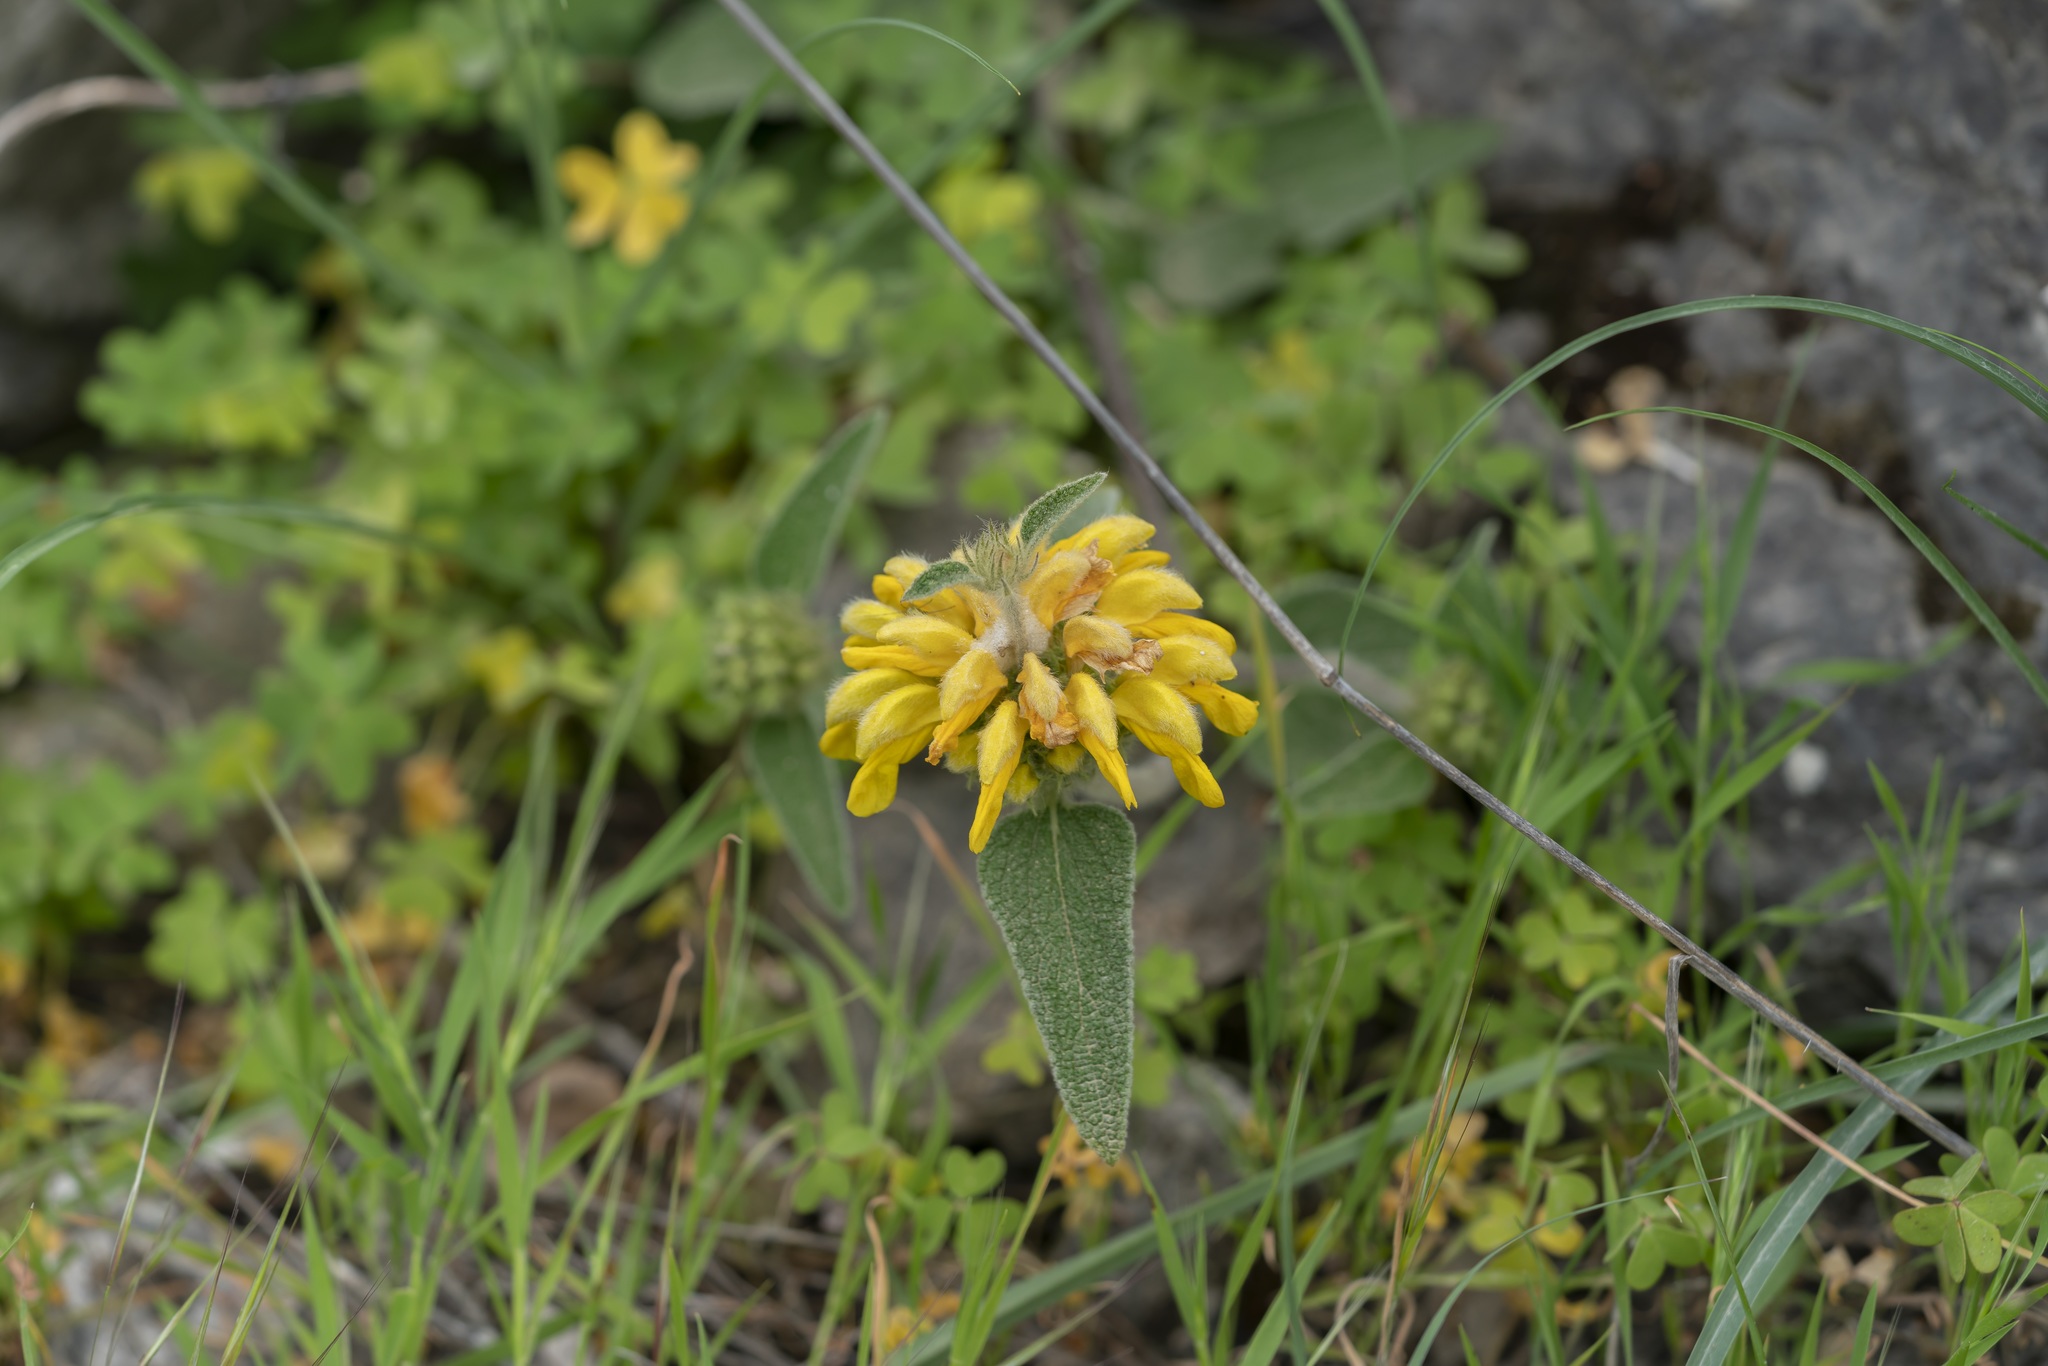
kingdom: Plantae
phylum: Tracheophyta
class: Magnoliopsida
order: Lamiales
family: Lamiaceae
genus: Phlomis
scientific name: Phlomis bourgaei
